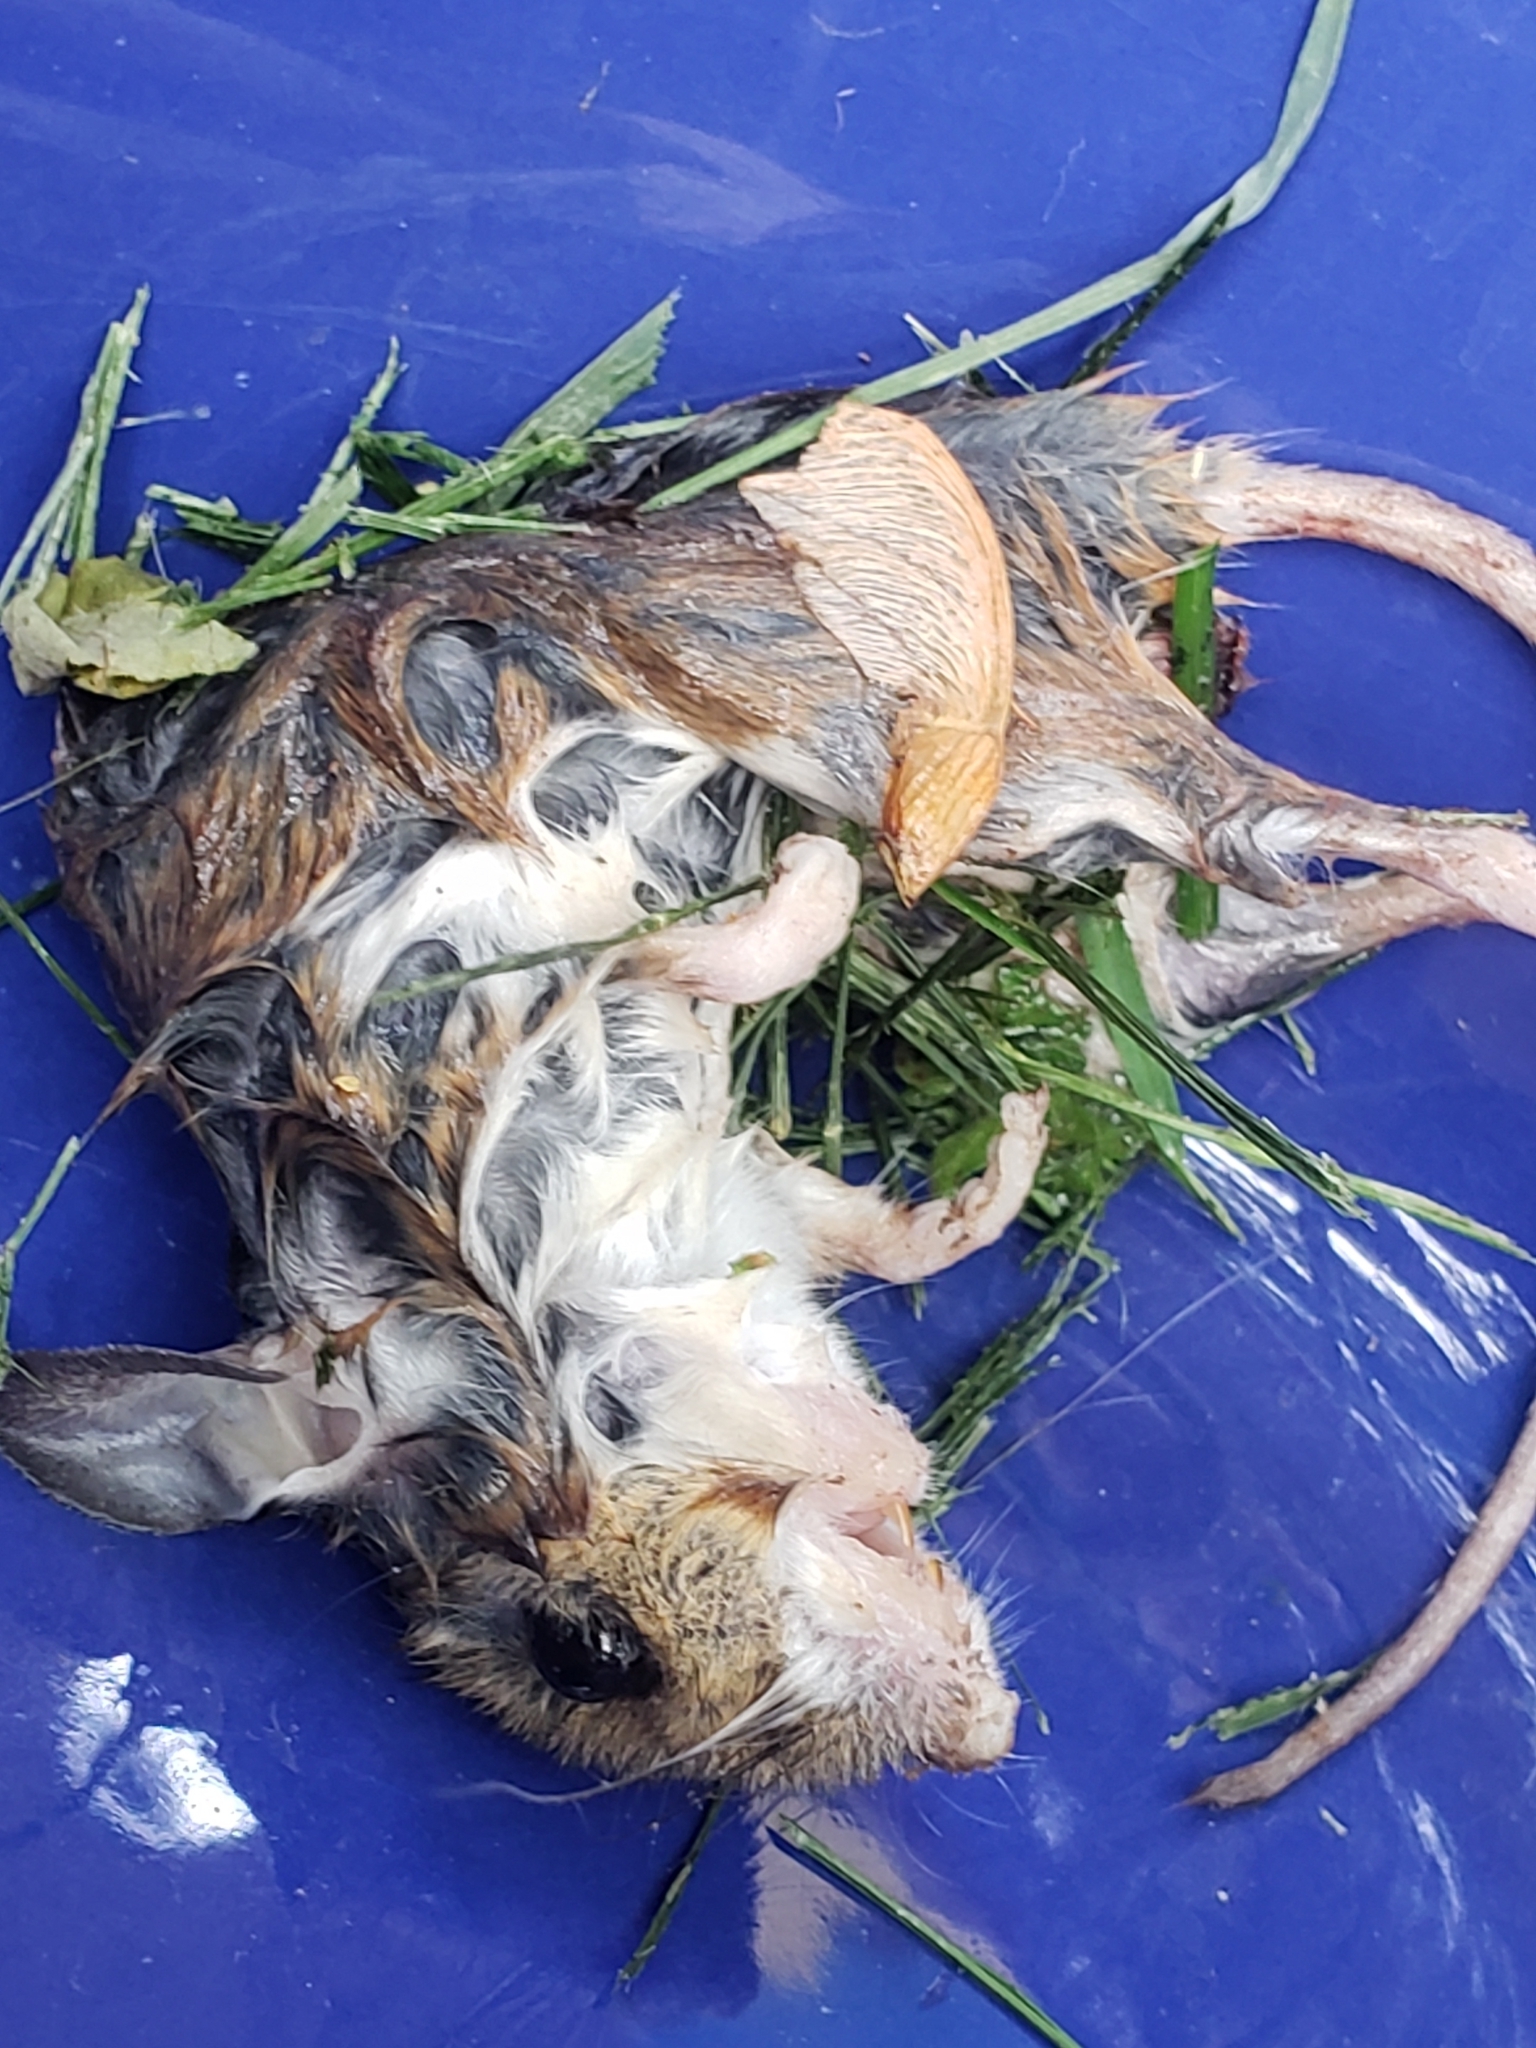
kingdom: Animalia
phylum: Chordata
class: Mammalia
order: Rodentia
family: Cricetidae
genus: Peromyscus
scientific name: Peromyscus leucopus
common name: White-footed deermouse
